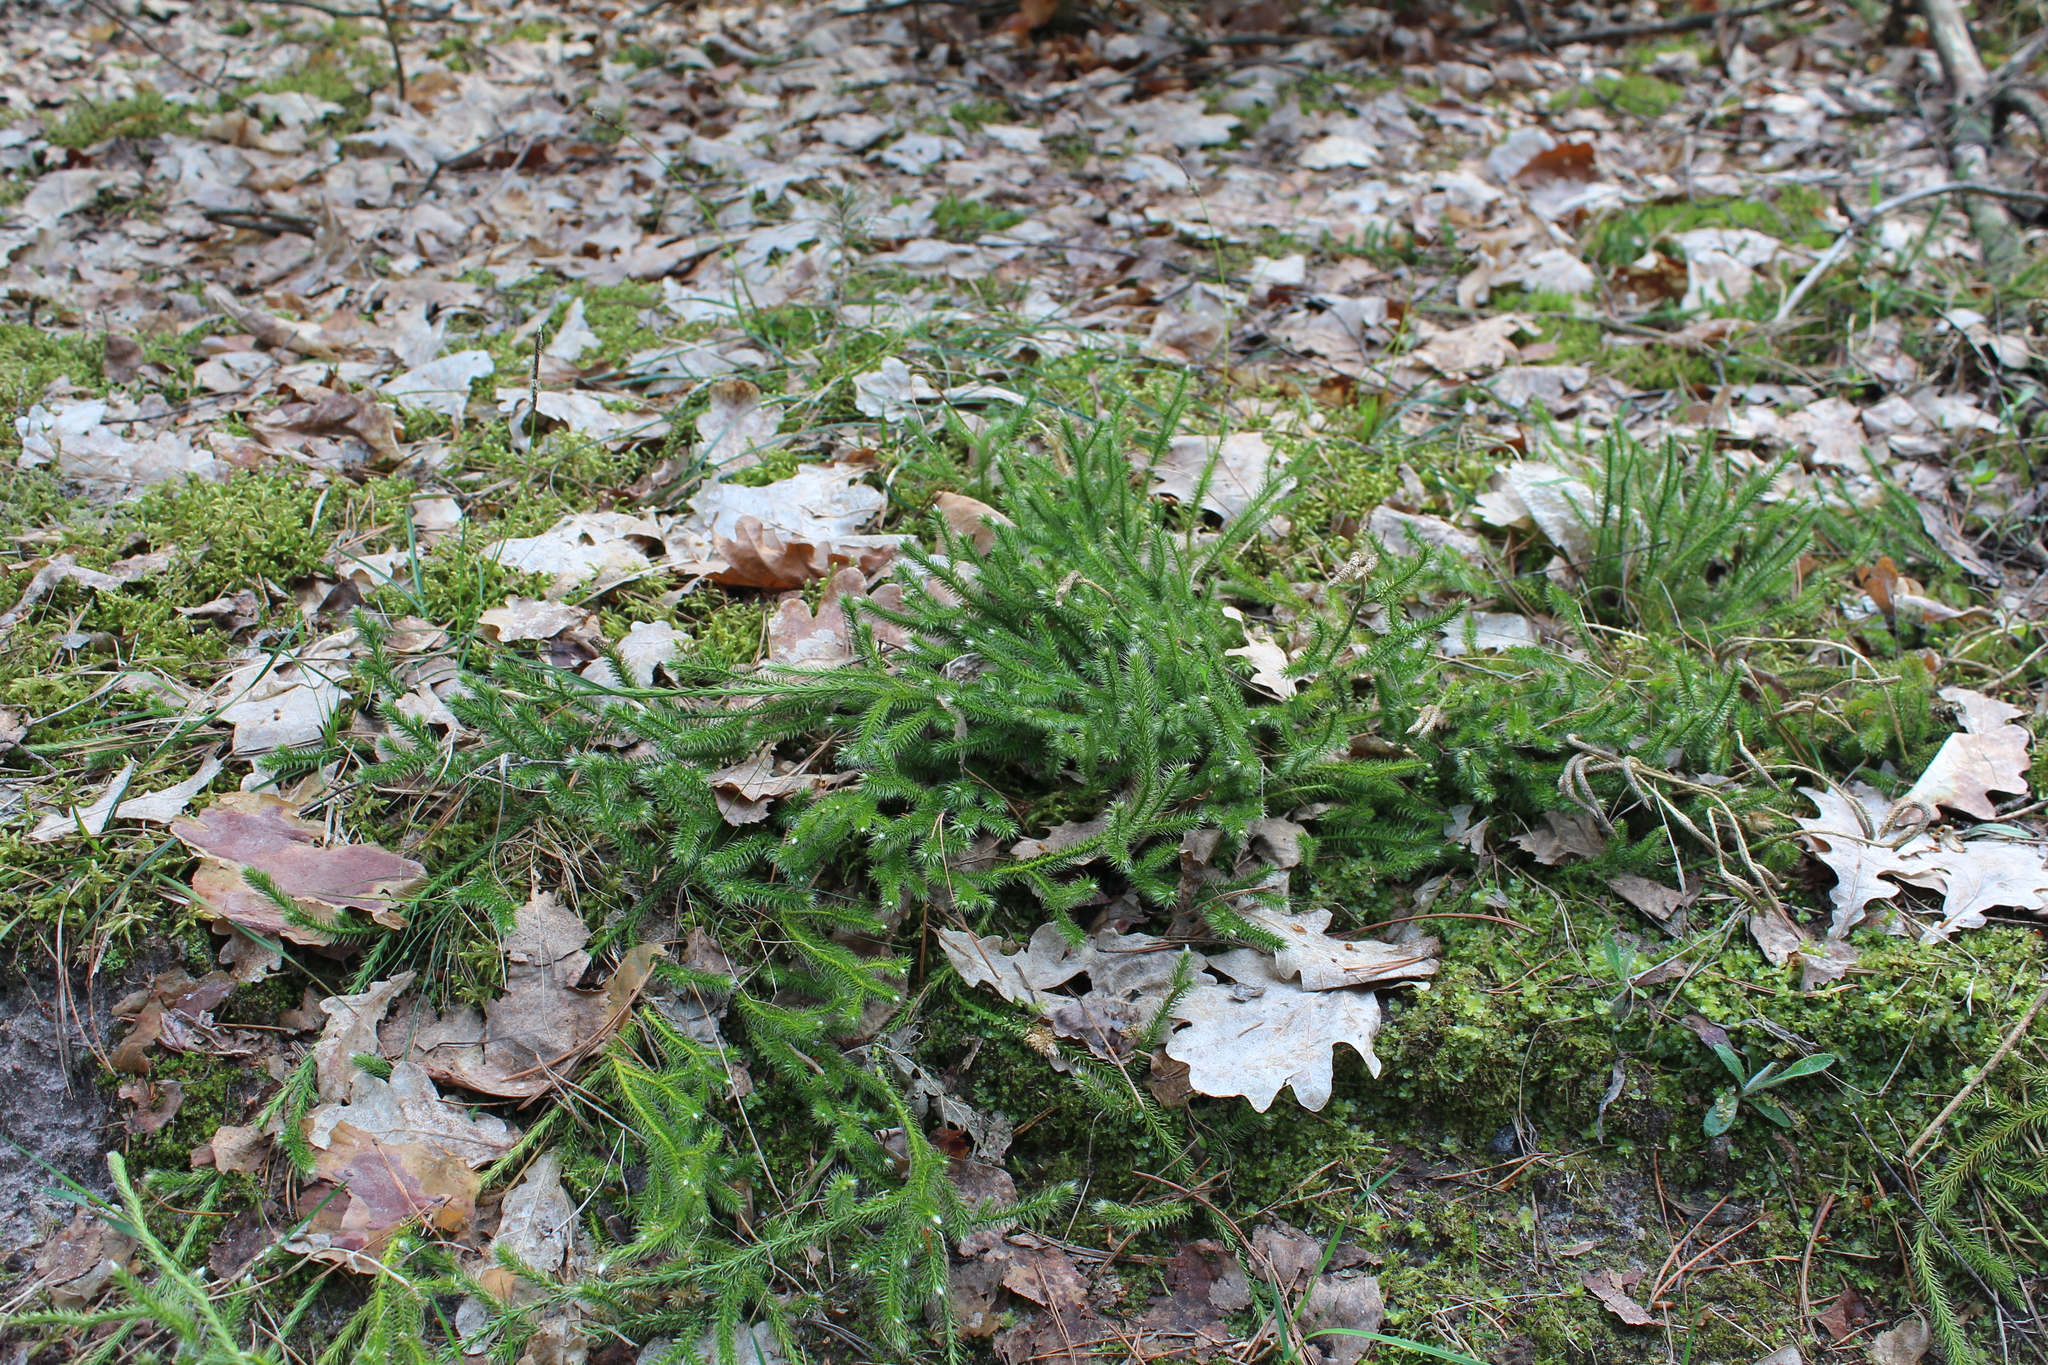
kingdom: Plantae
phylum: Tracheophyta
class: Lycopodiopsida
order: Lycopodiales
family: Lycopodiaceae
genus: Lycopodium
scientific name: Lycopodium clavatum
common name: Stag's-horn clubmoss
